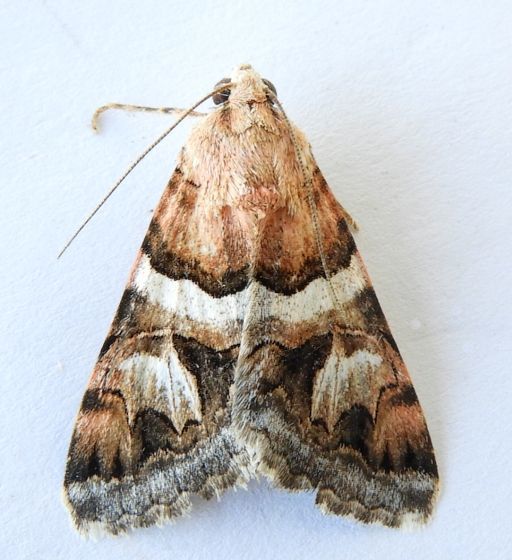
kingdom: Animalia
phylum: Arthropoda
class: Insecta
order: Lepidoptera
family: Erebidae
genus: Drasteria
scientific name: Drasteria howlandii
